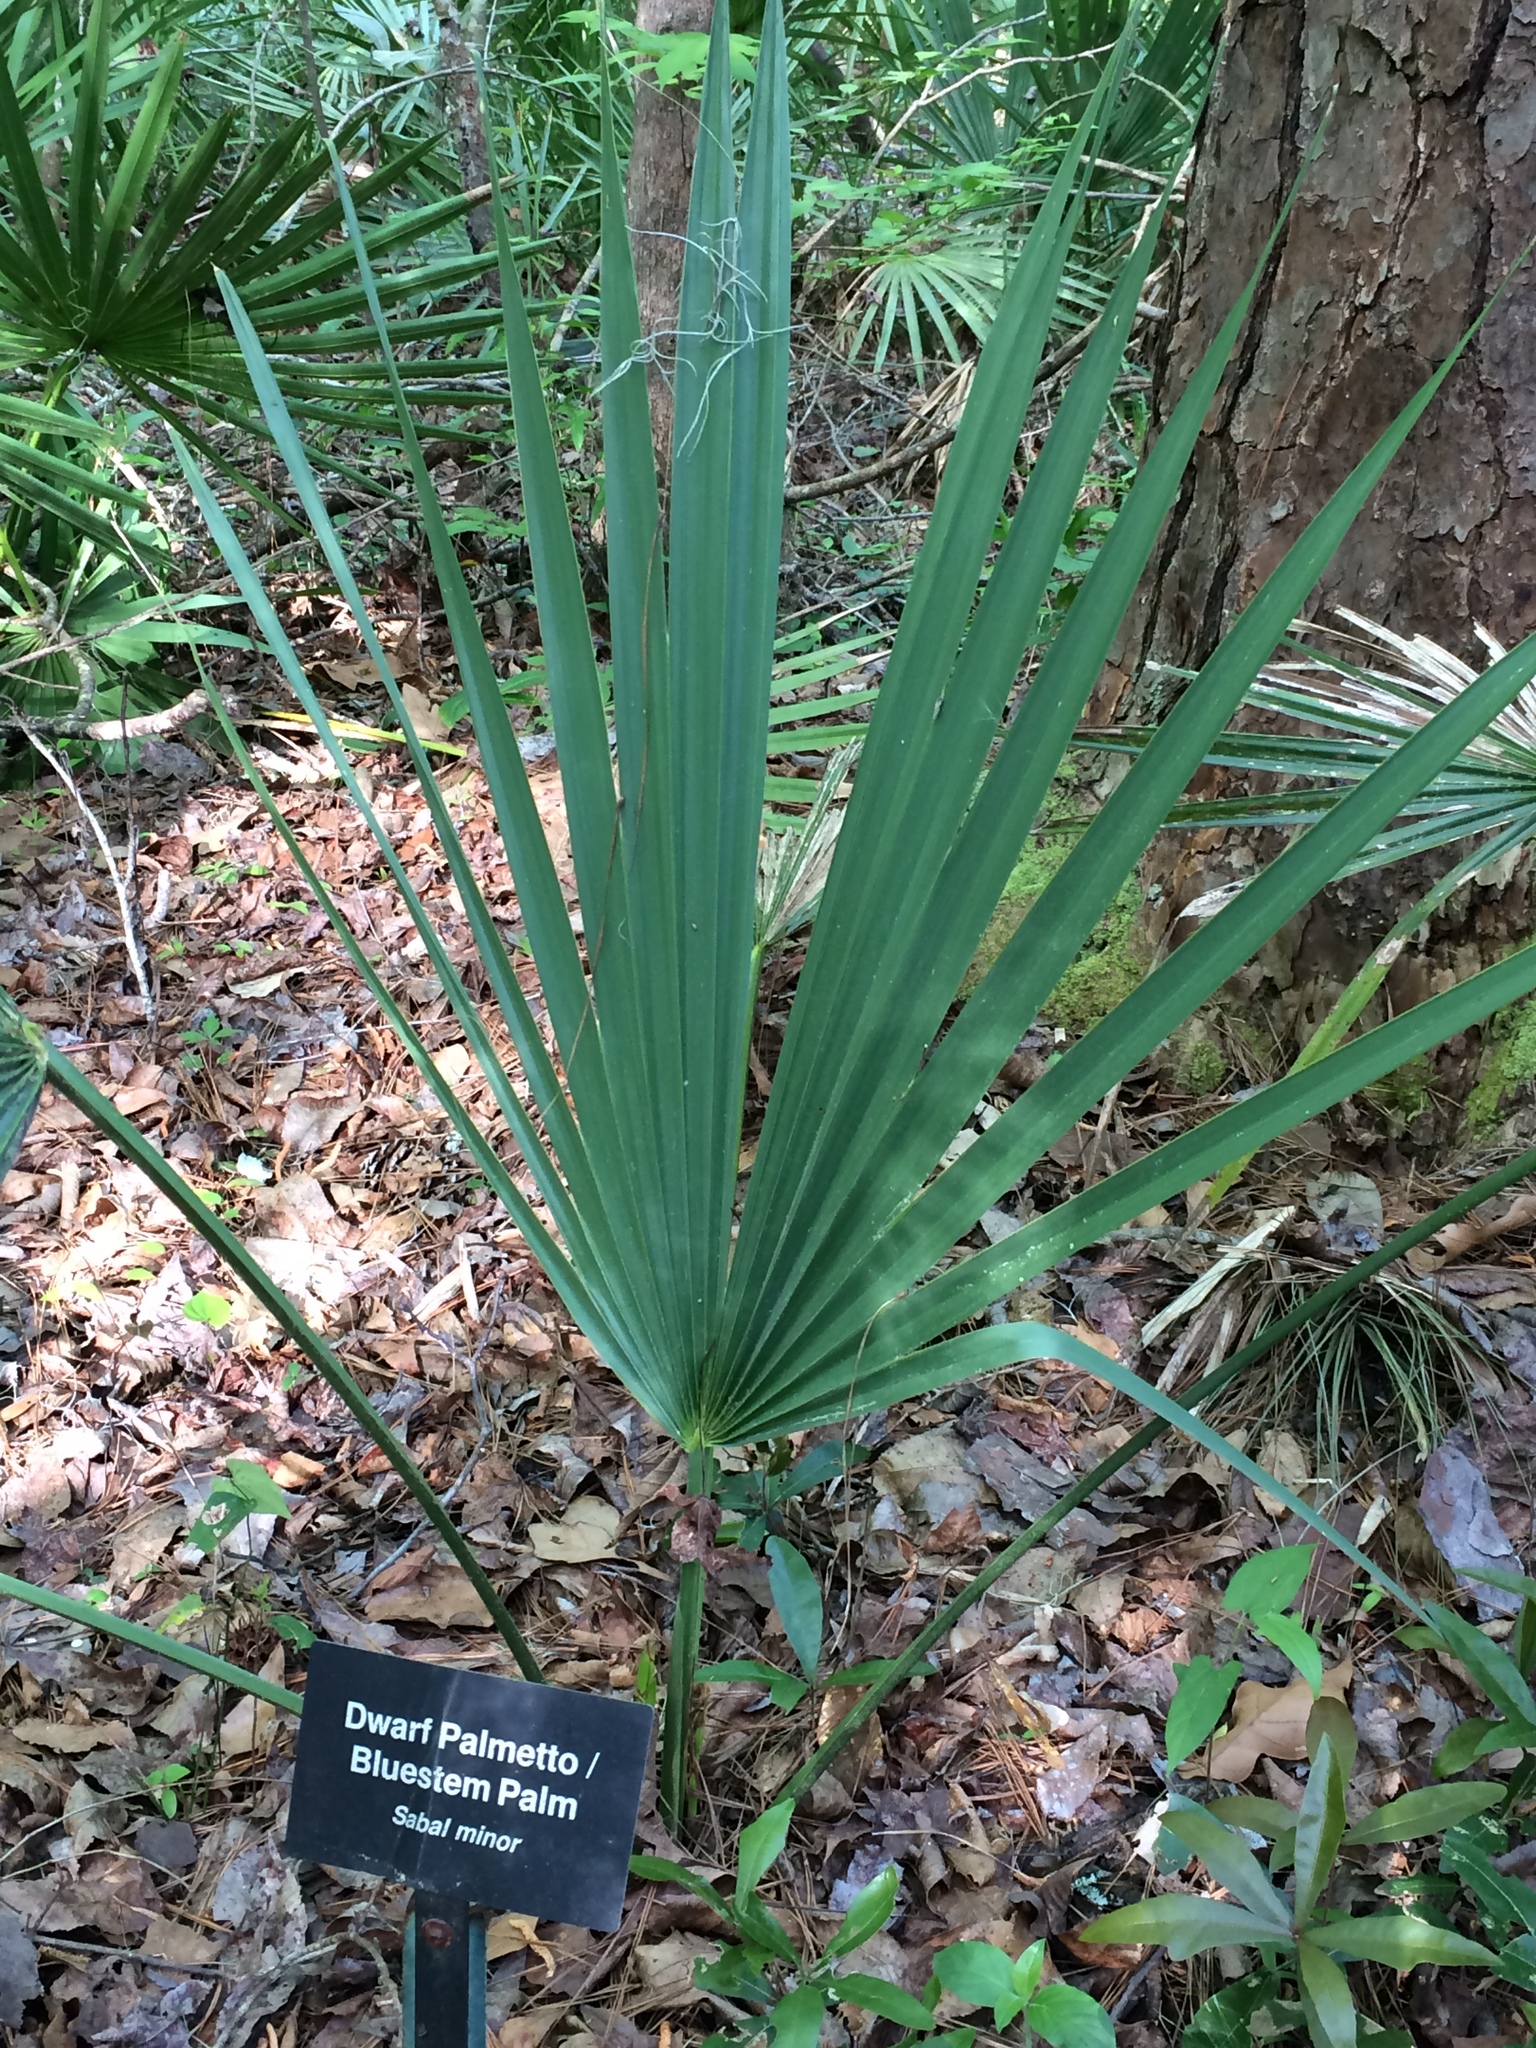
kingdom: Plantae
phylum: Tracheophyta
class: Liliopsida
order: Arecales
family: Arecaceae
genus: Sabal
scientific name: Sabal minor
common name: Dwarf palmetto
